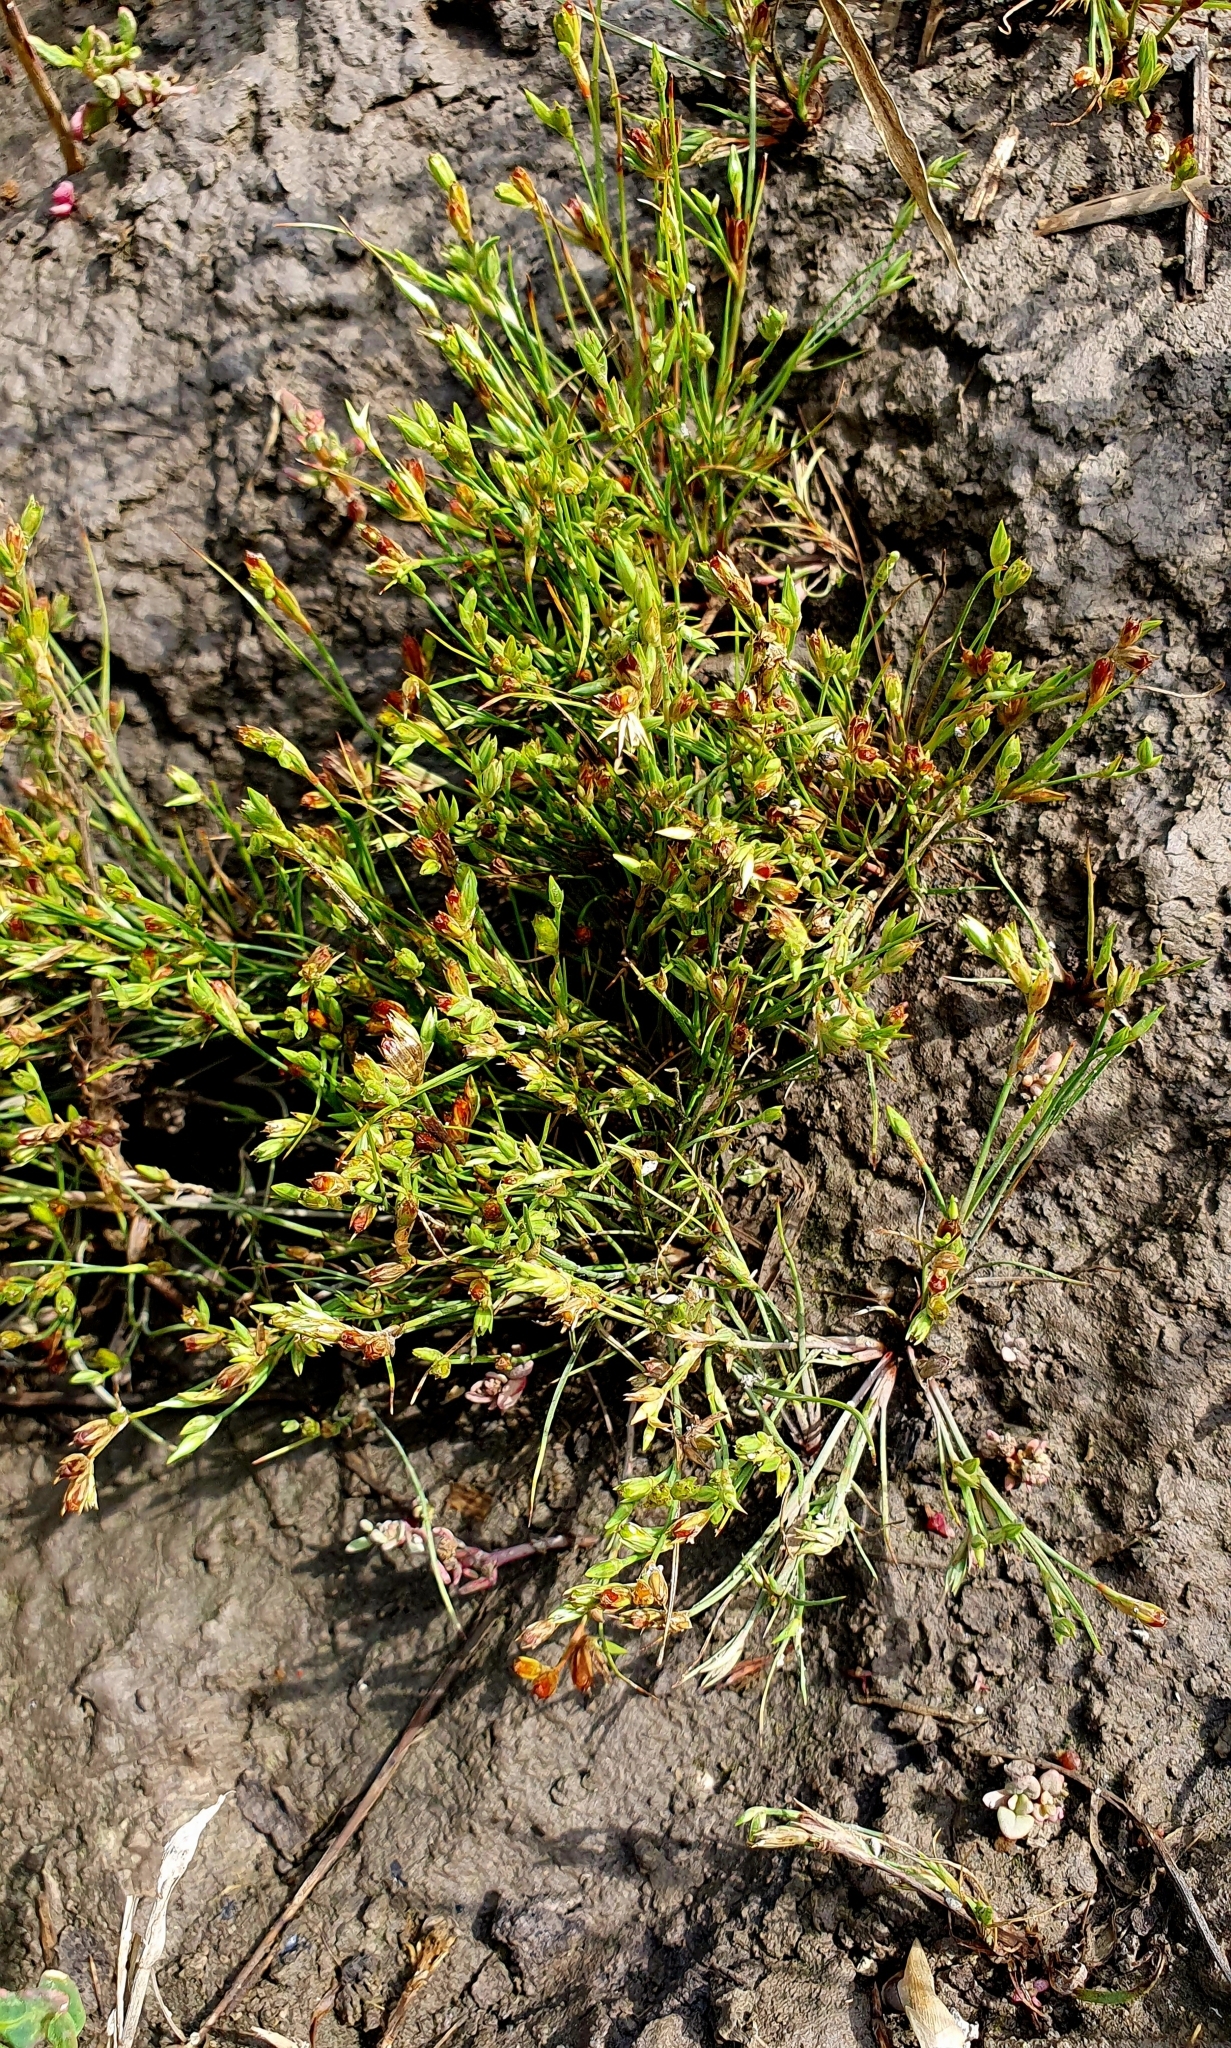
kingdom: Plantae
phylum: Tracheophyta
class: Liliopsida
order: Poales
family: Juncaceae
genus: Juncus
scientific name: Juncus bufonius
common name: Toad rush
